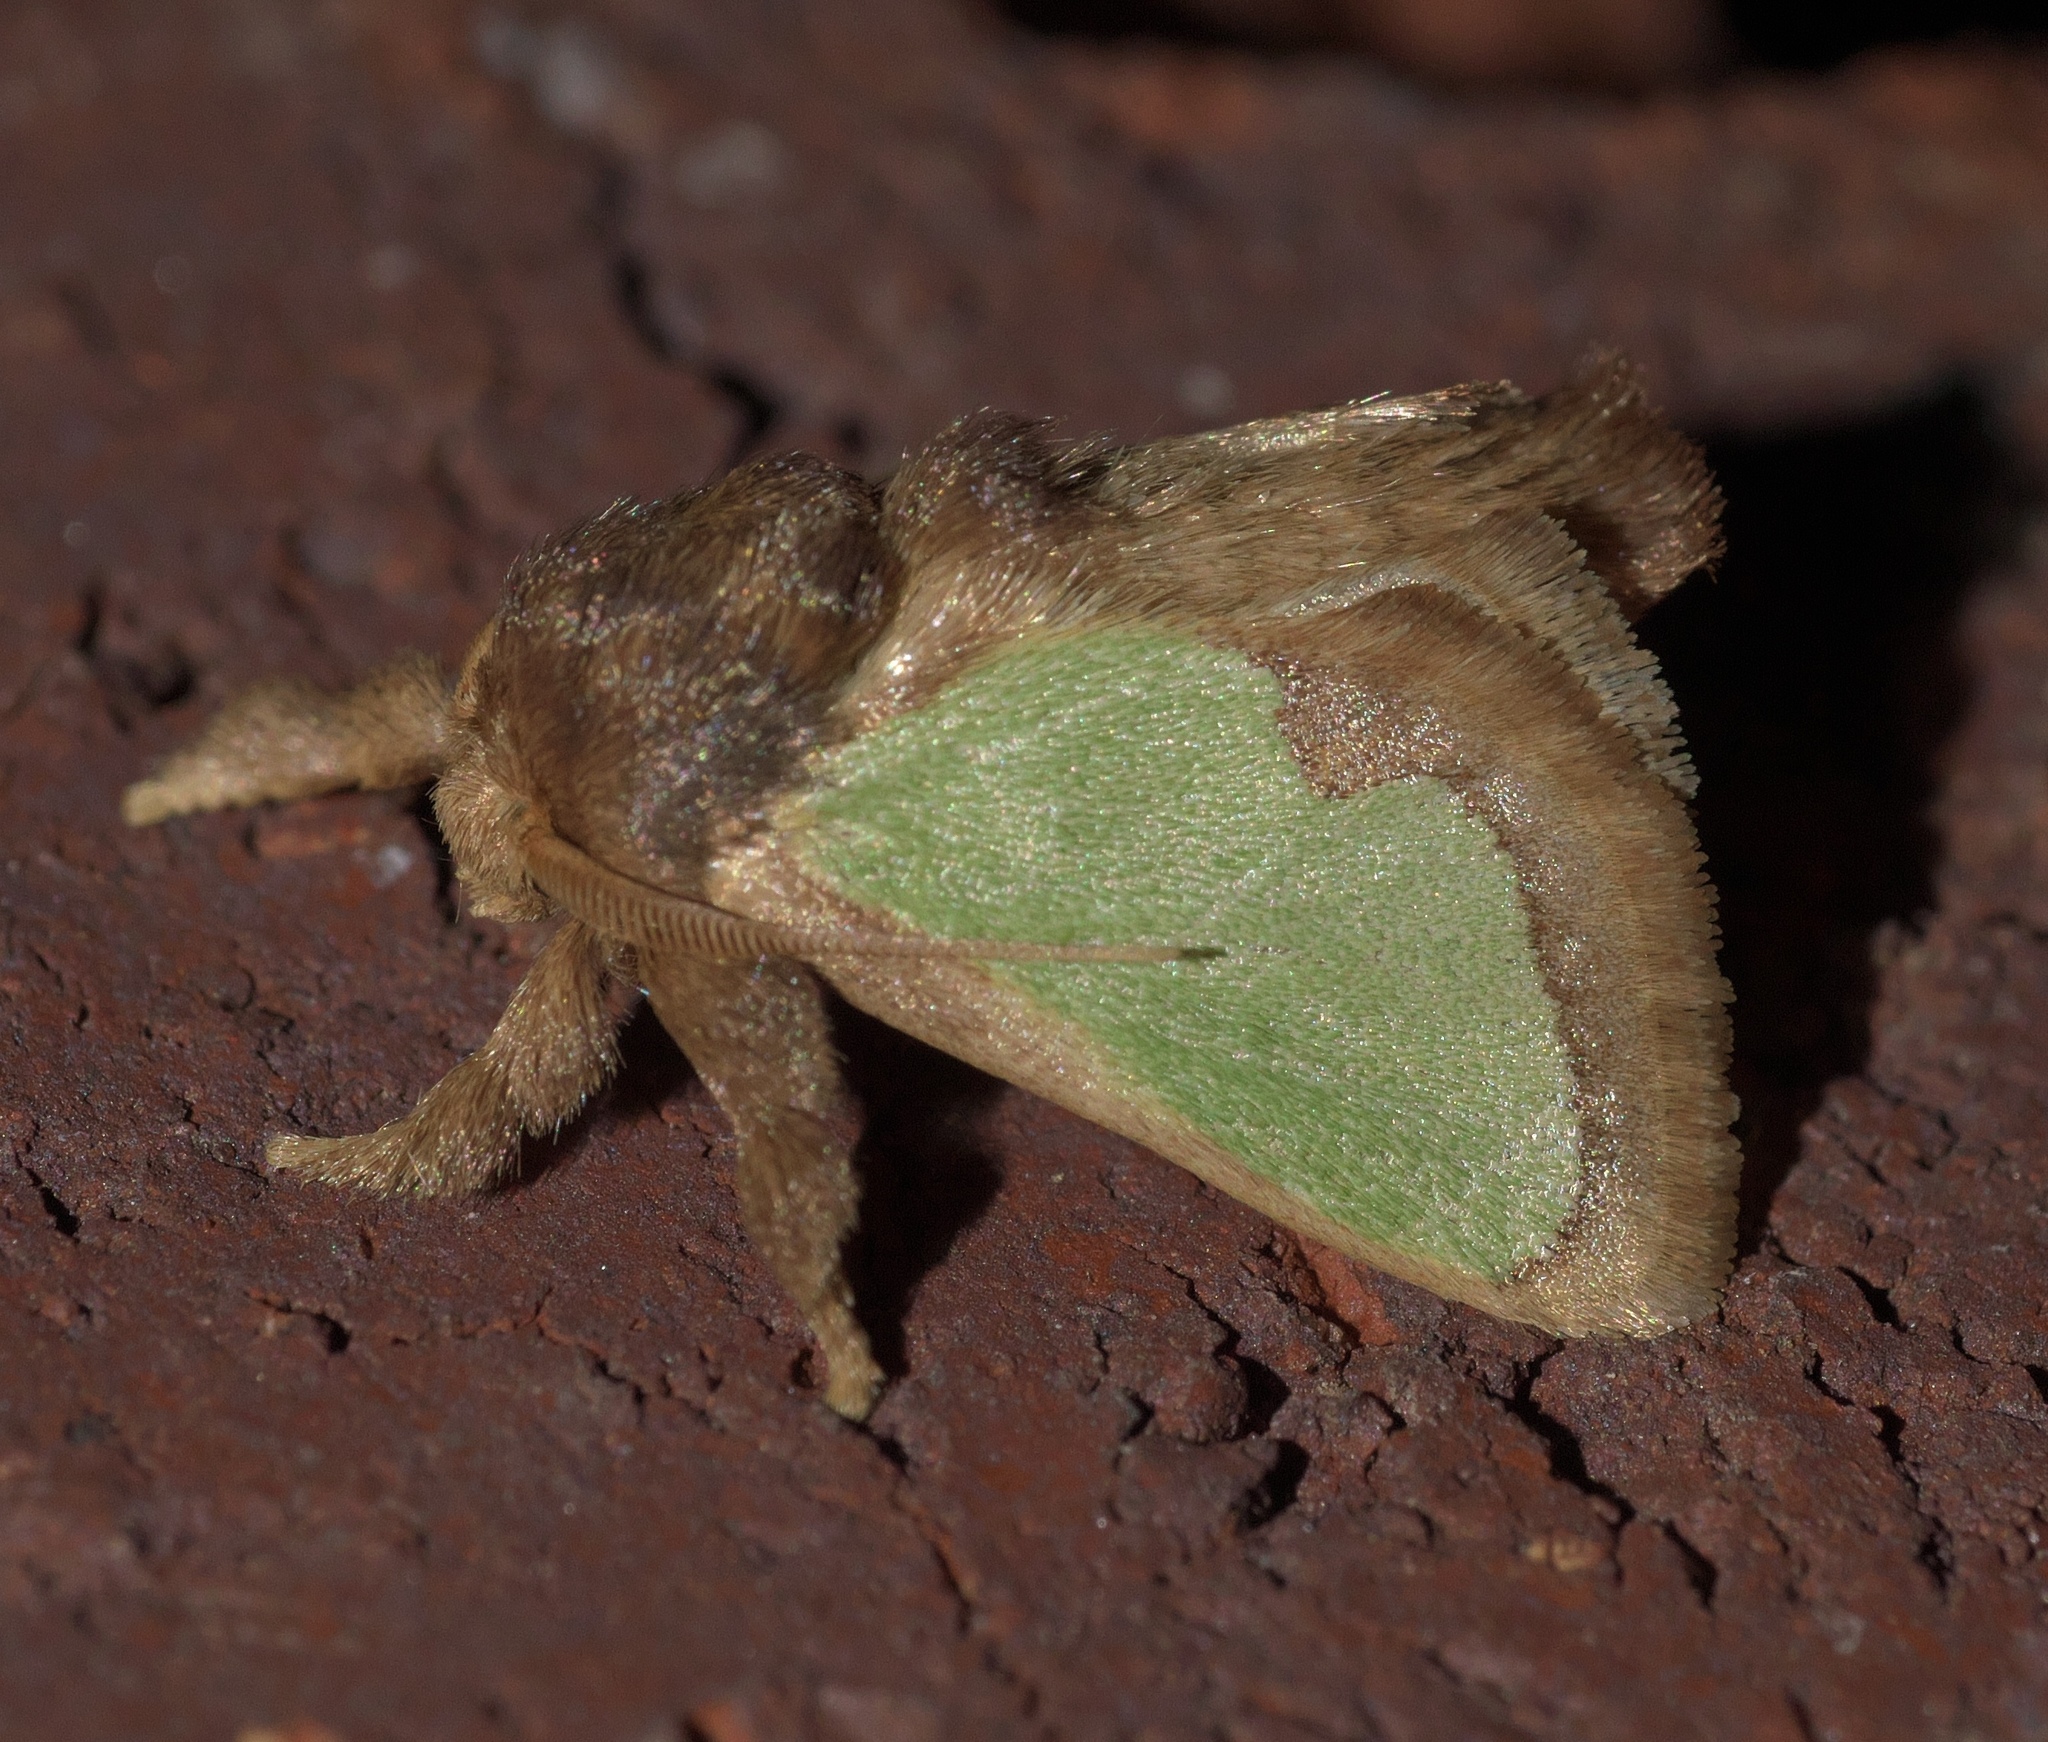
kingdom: Animalia
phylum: Arthropoda
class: Insecta
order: Lepidoptera
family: Limacodidae
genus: Euclea
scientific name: Euclea incisa
